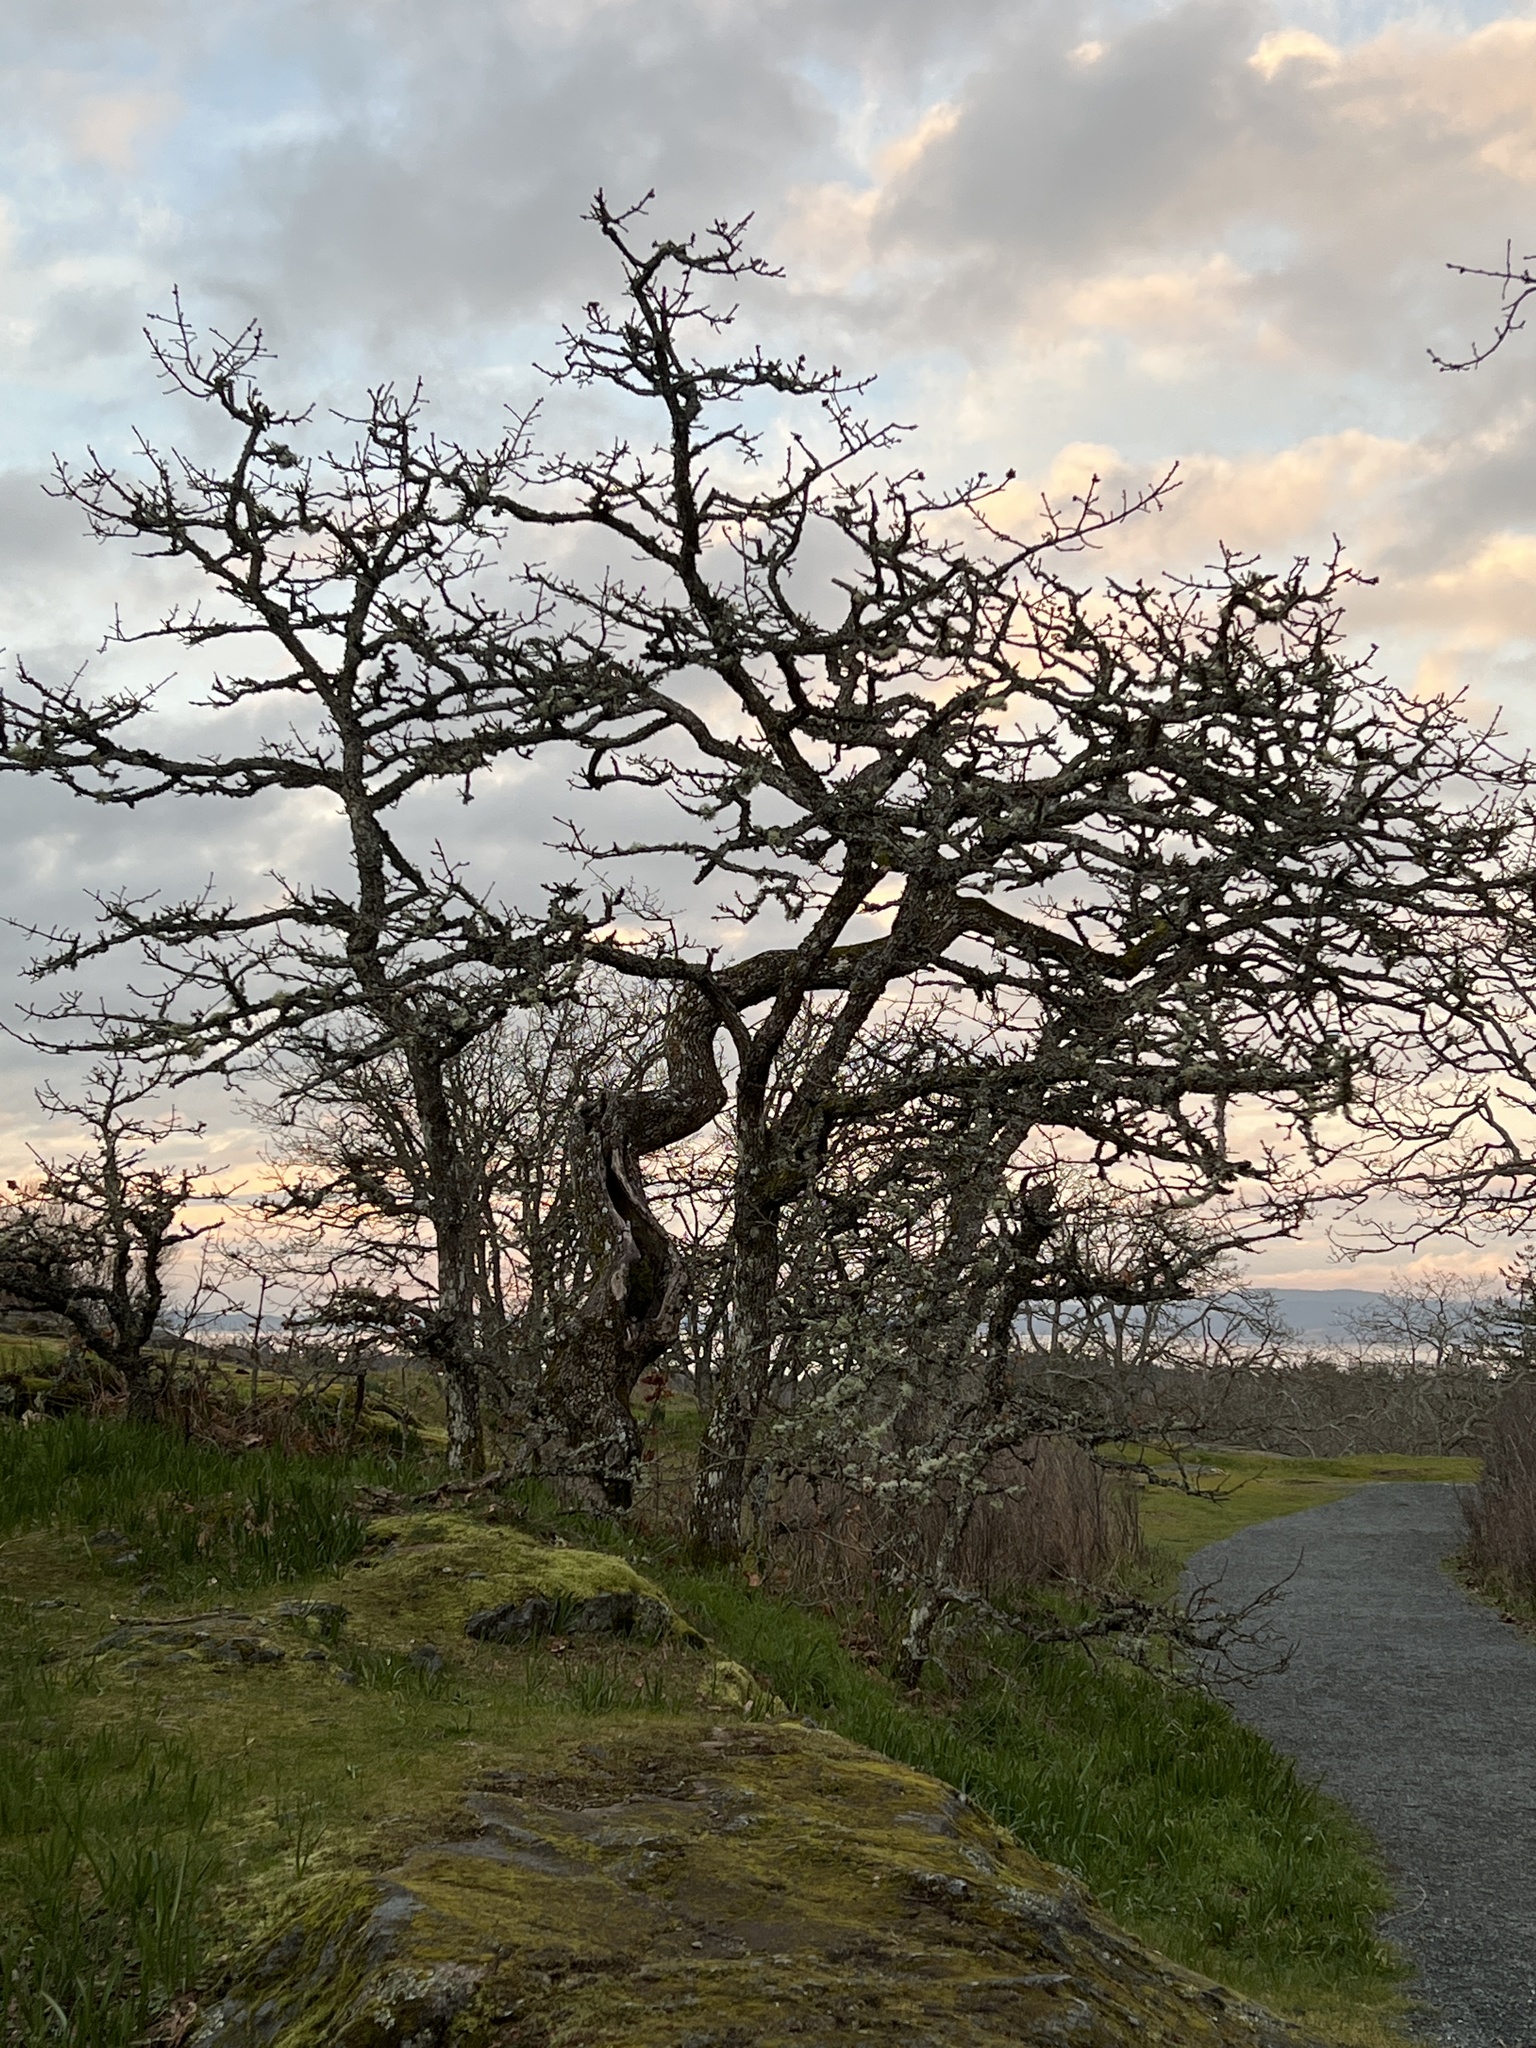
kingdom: Plantae
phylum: Tracheophyta
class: Magnoliopsida
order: Fagales
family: Fagaceae
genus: Quercus
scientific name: Quercus garryana
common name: Garry oak
